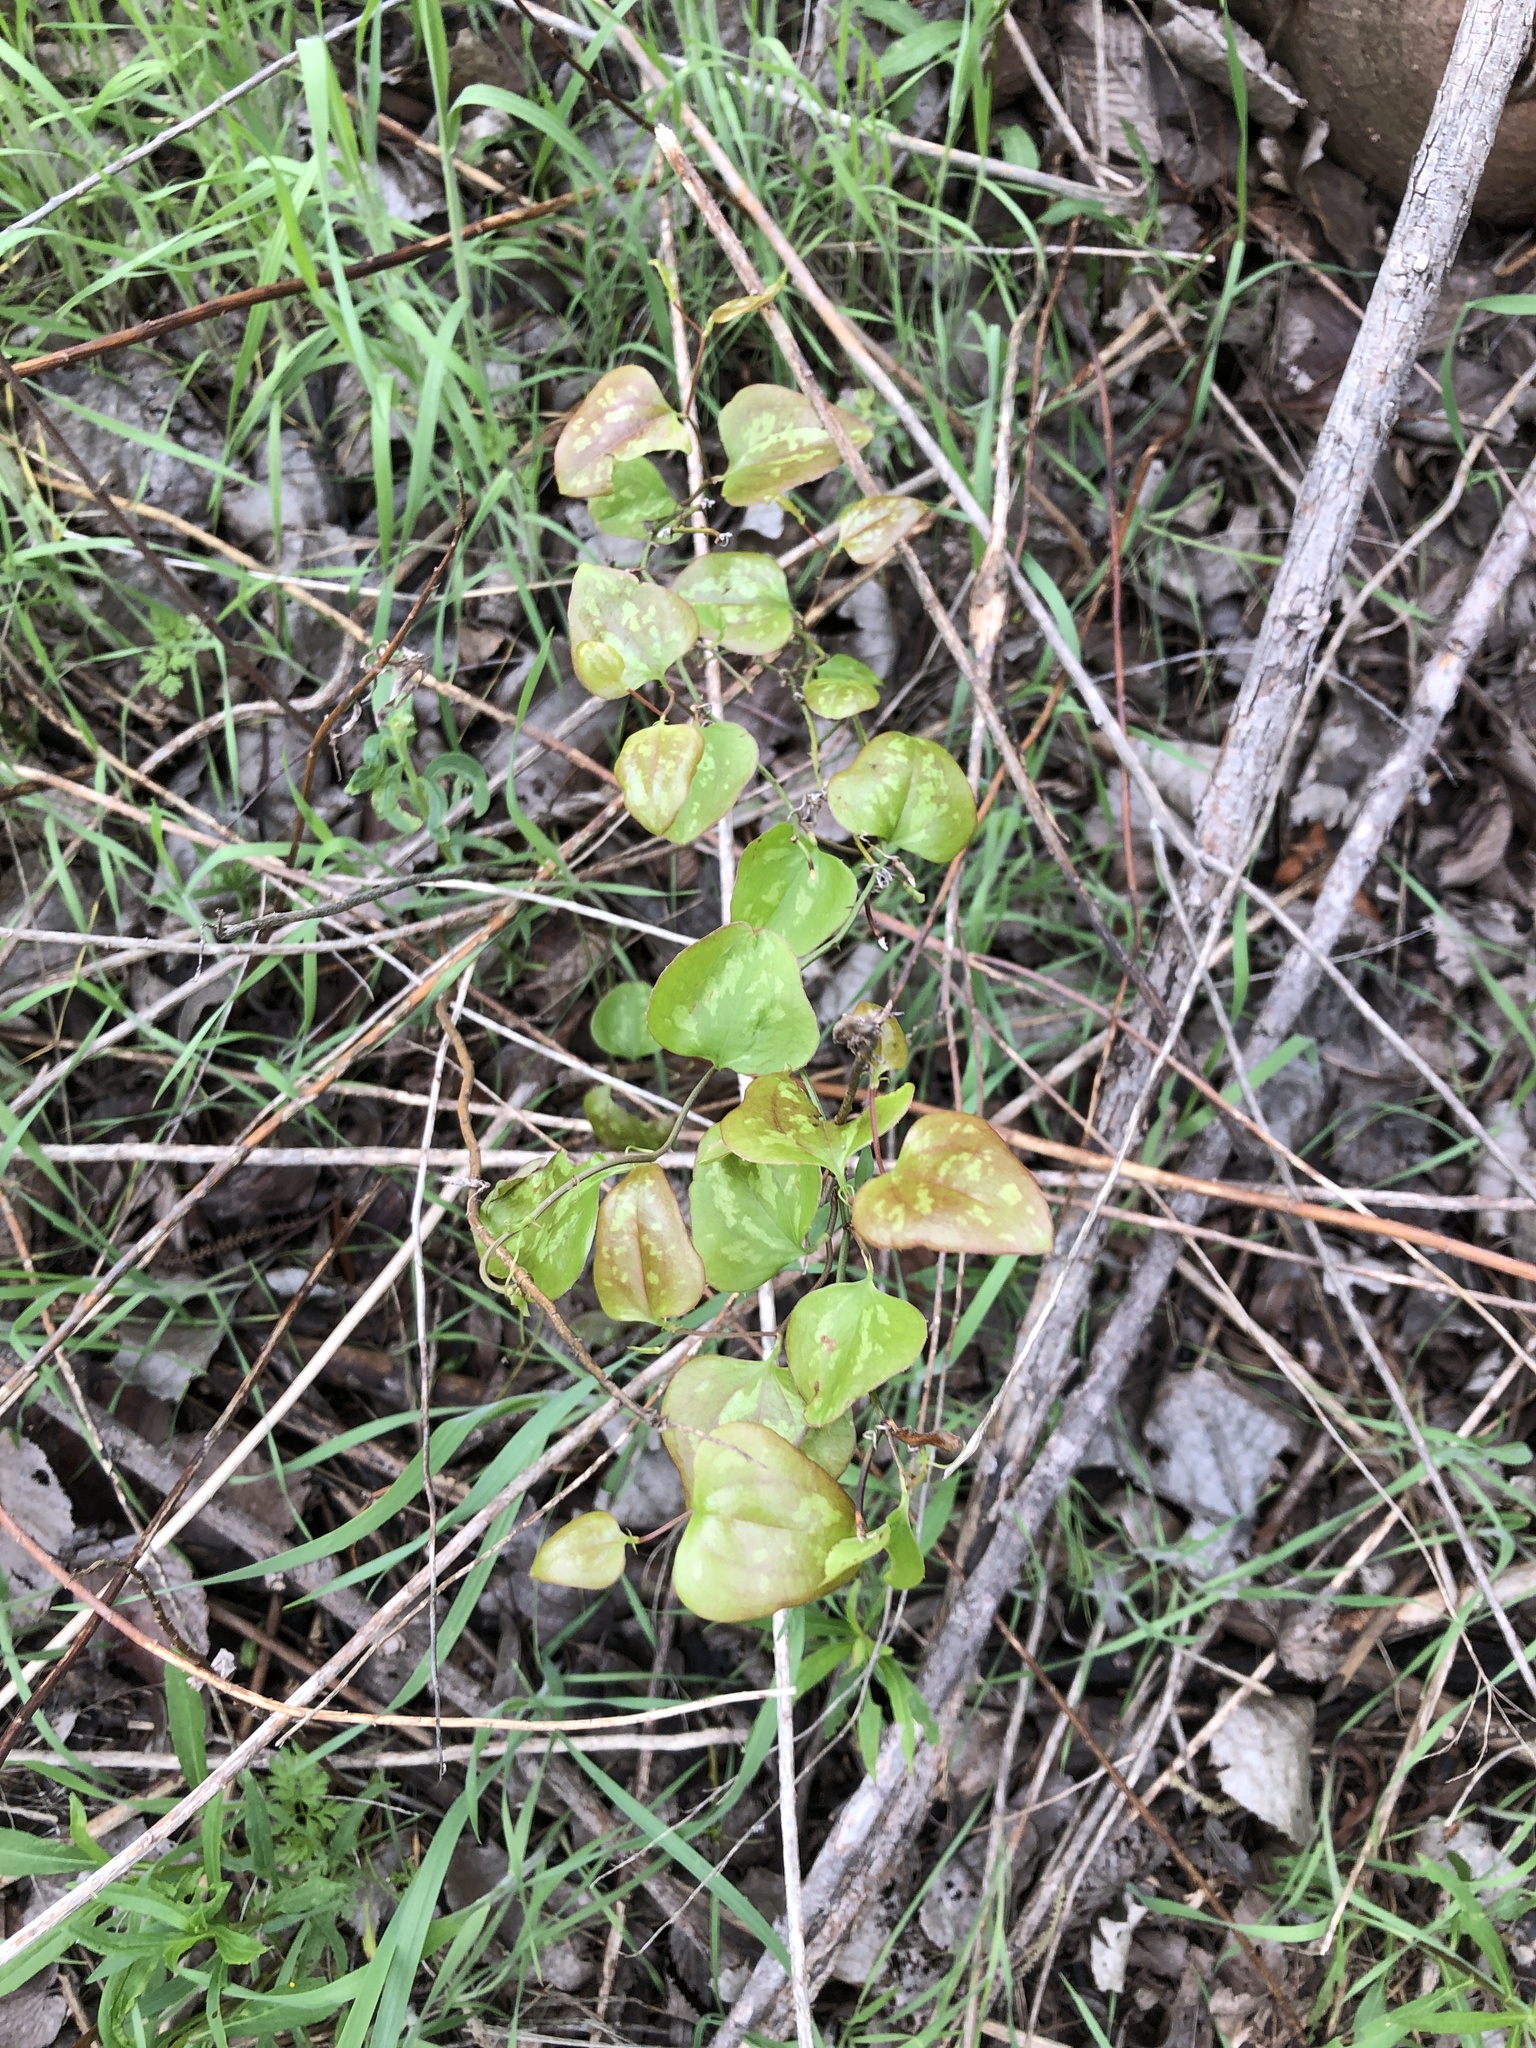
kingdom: Plantae
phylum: Tracheophyta
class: Liliopsida
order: Liliales
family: Smilacaceae
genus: Smilax
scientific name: Smilax bona-nox
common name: Catbrier
